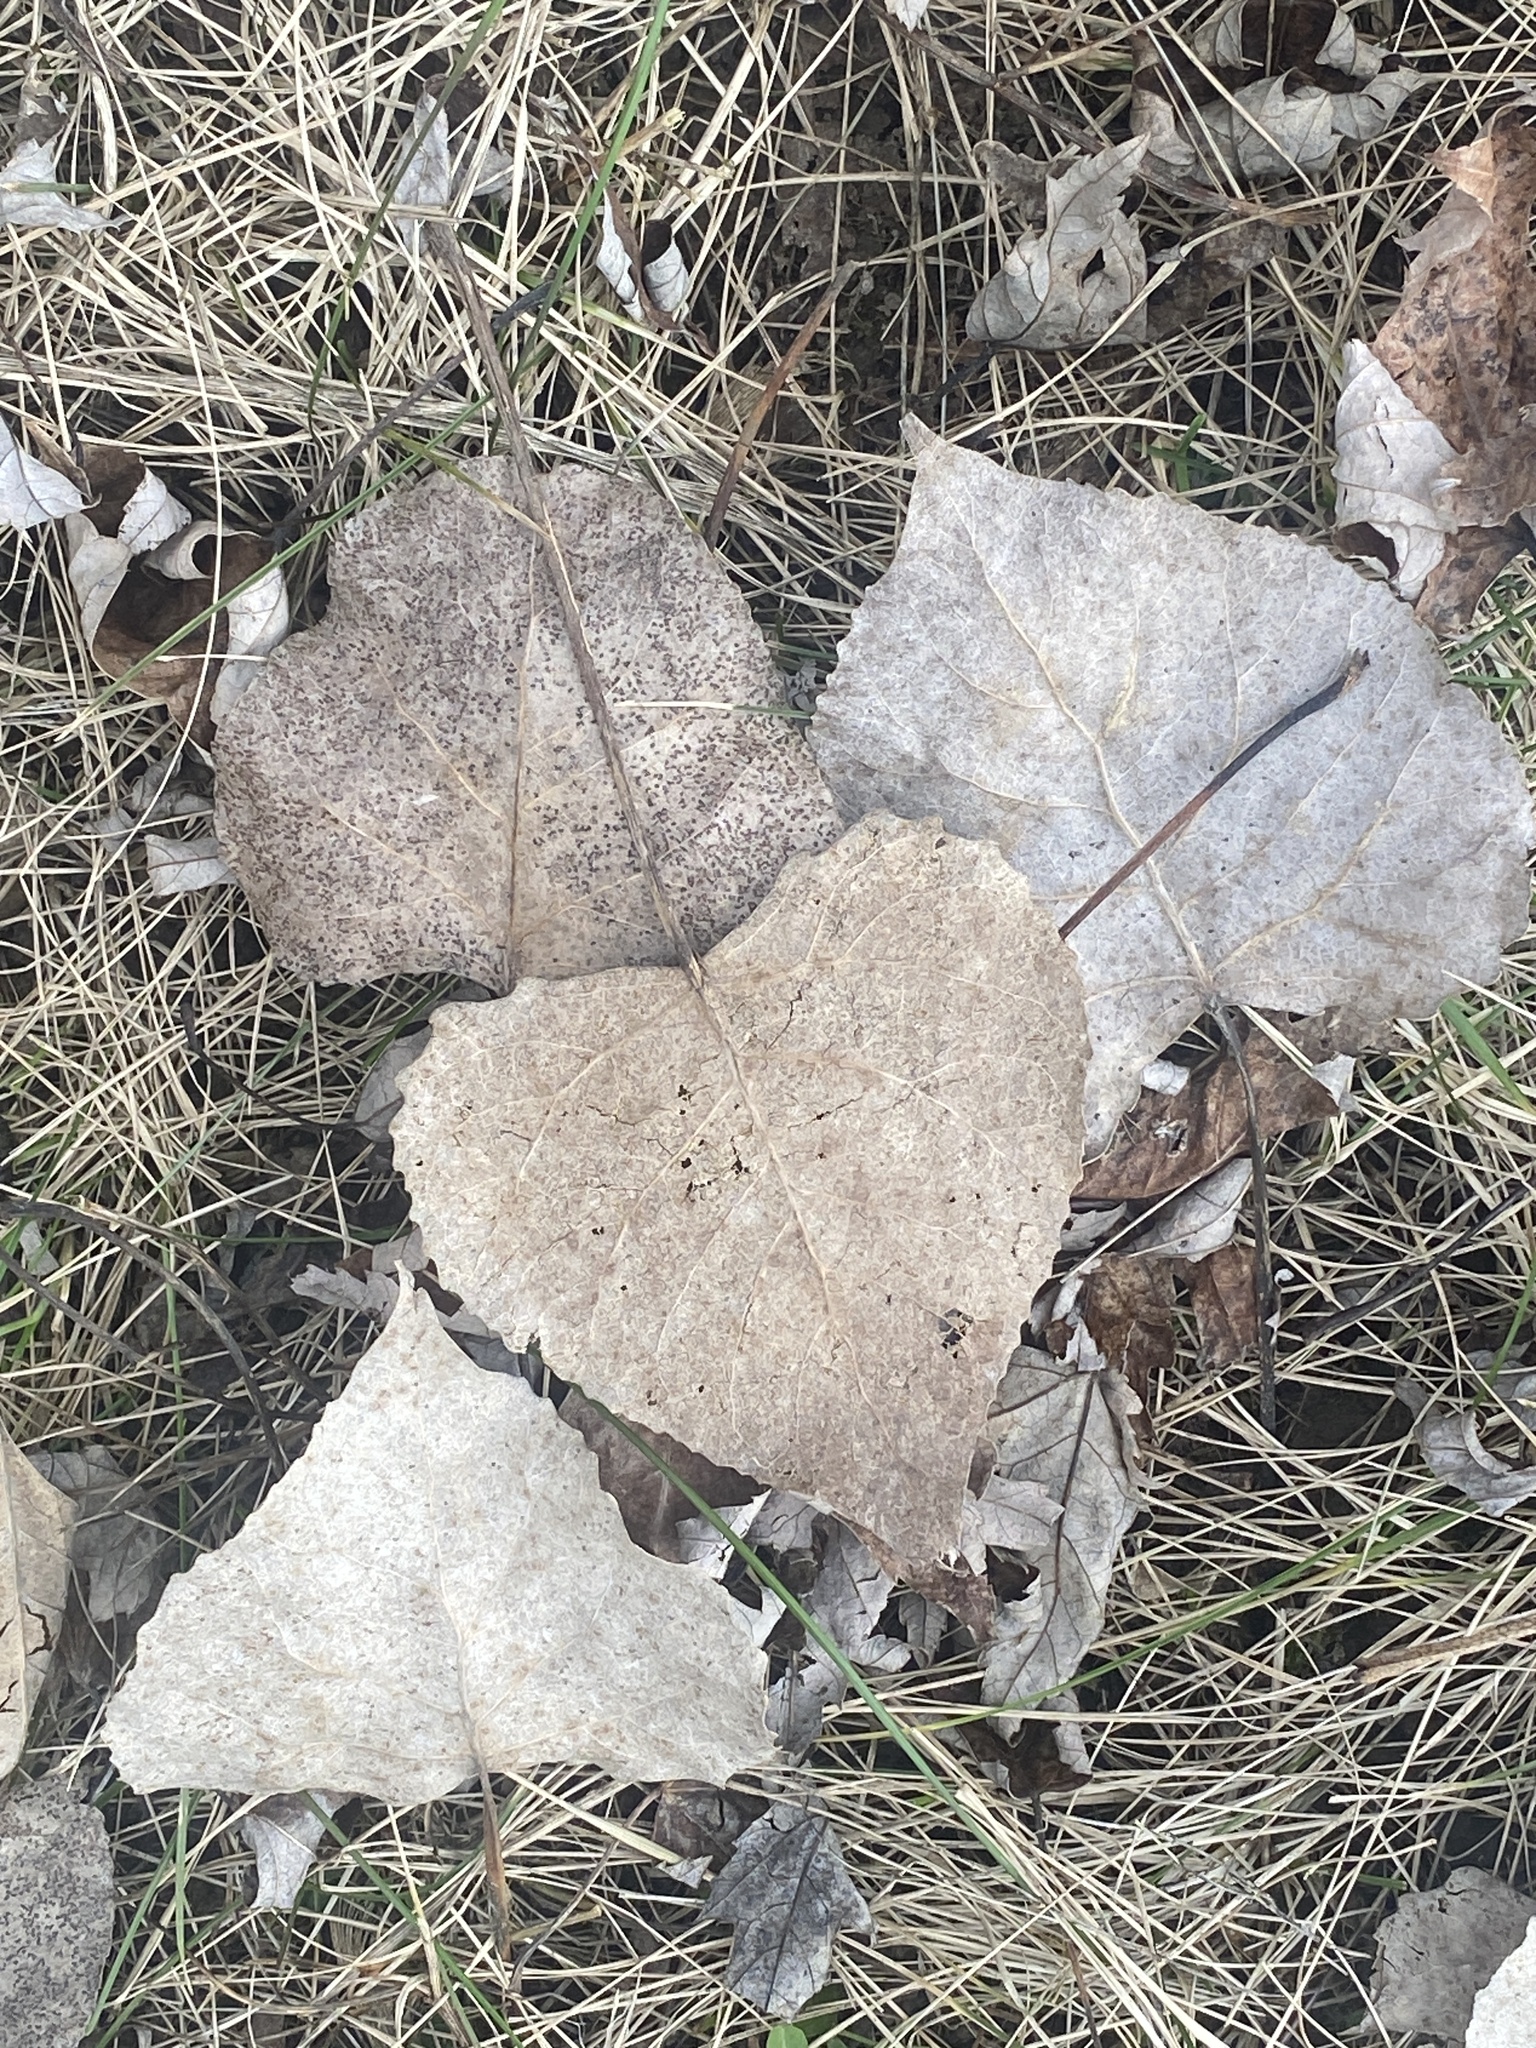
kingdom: Plantae
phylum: Tracheophyta
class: Magnoliopsida
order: Malpighiales
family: Salicaceae
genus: Populus
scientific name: Populus deltoides
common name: Eastern cottonwood
